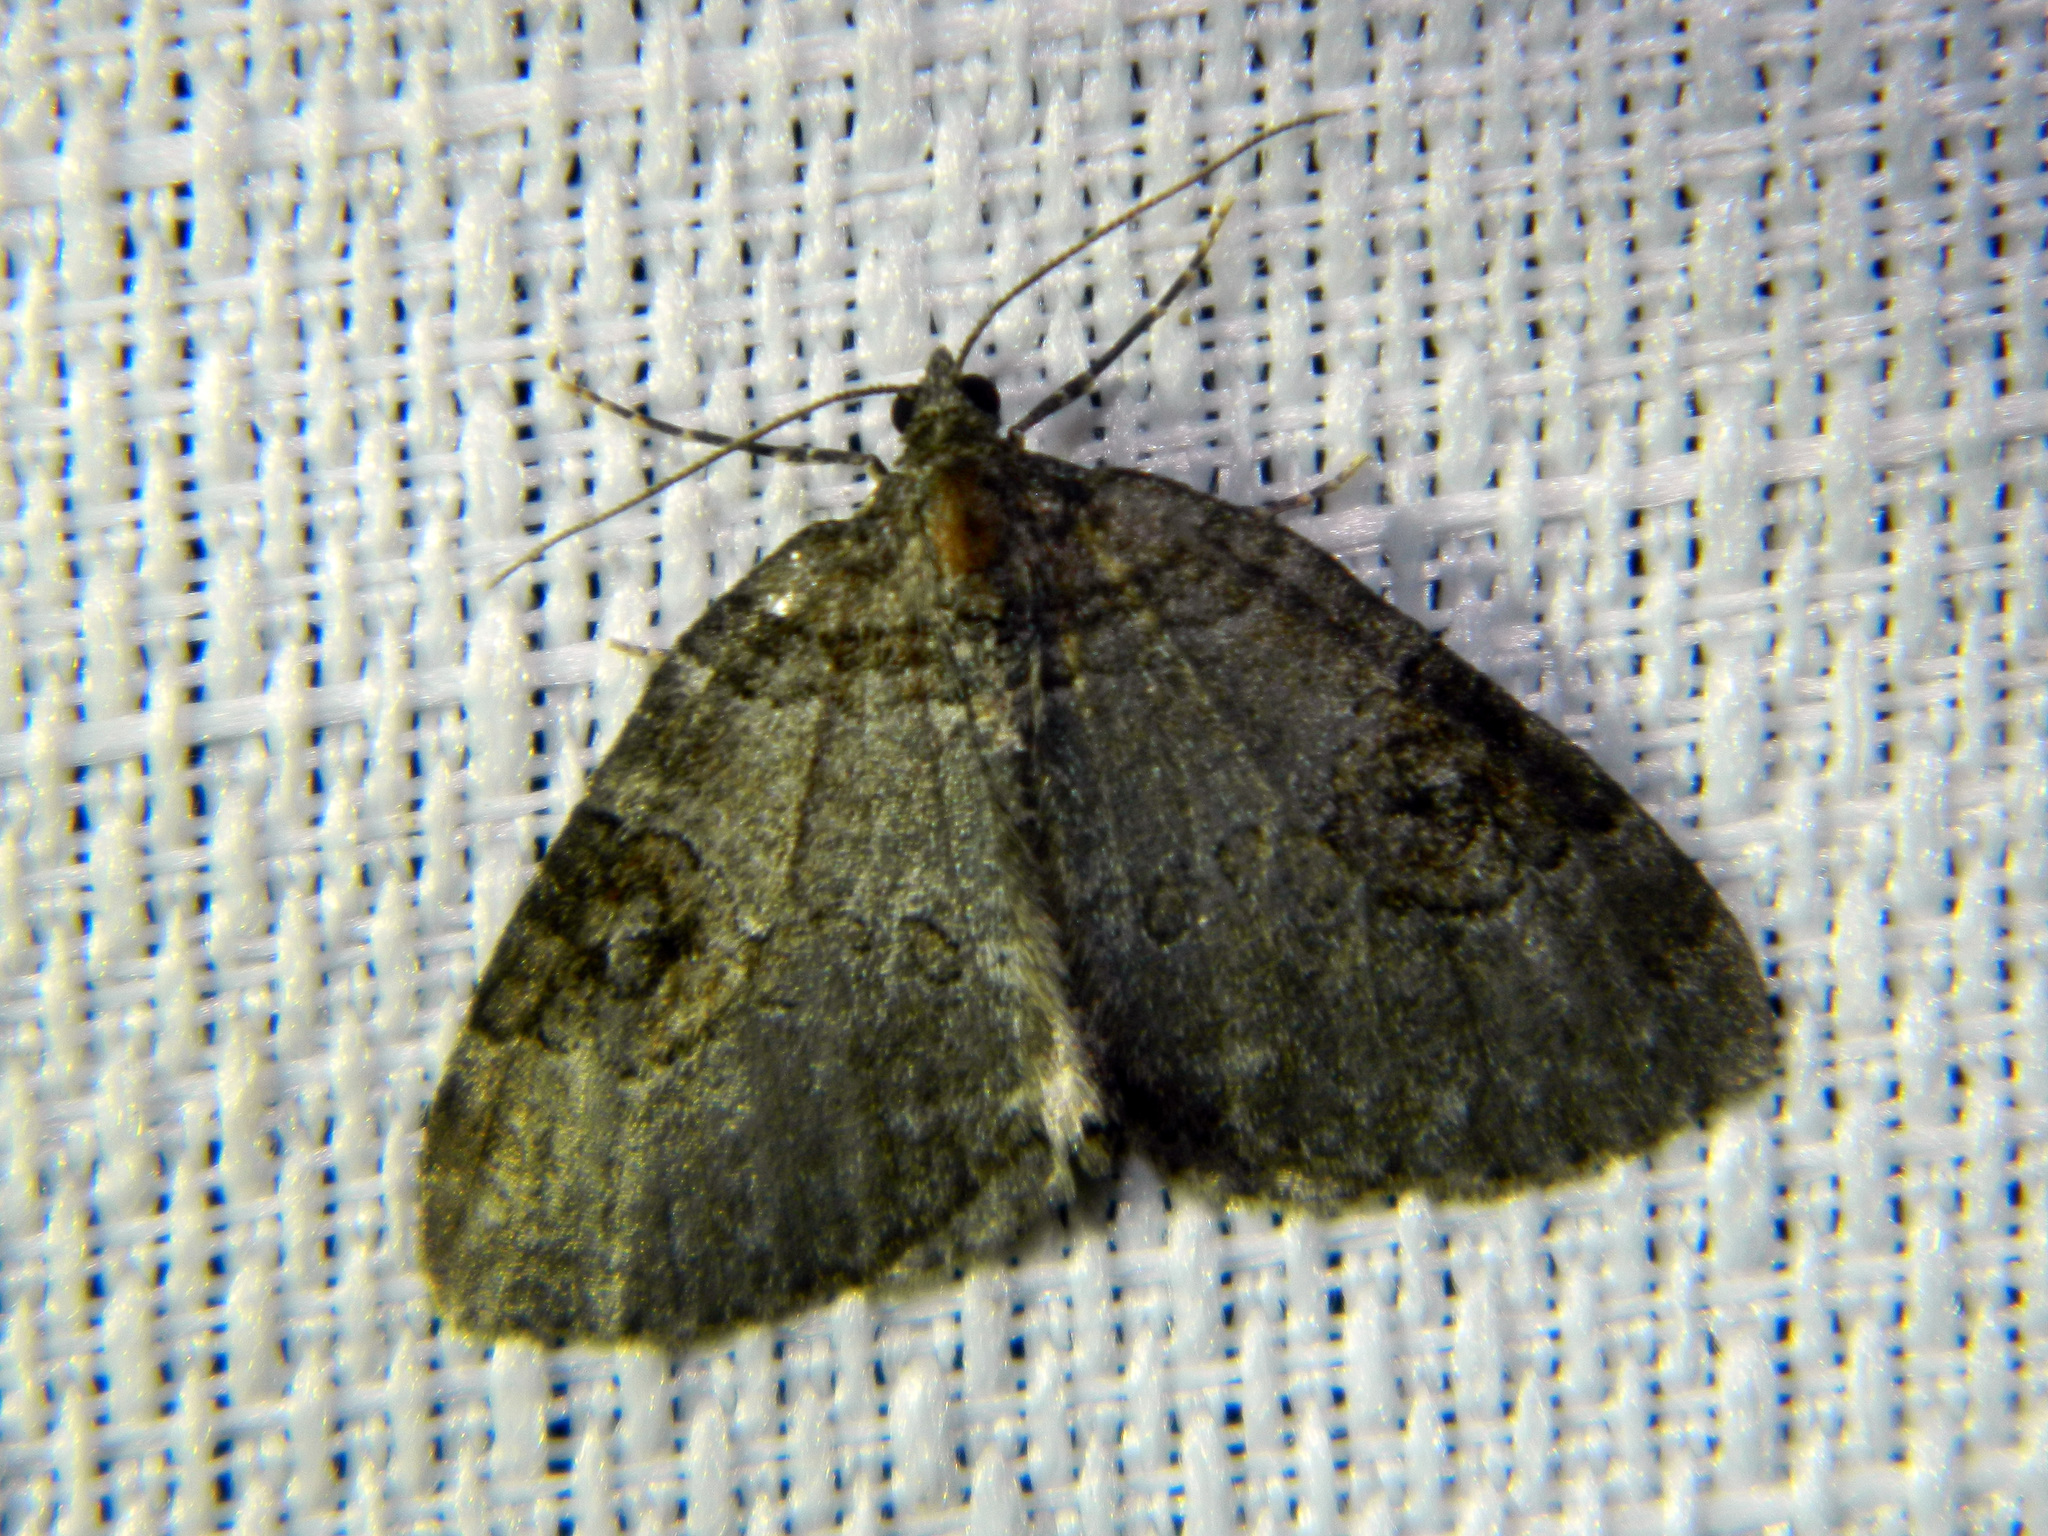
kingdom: Animalia
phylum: Arthropoda
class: Insecta
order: Lepidoptera
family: Geometridae
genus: Plemyria
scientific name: Plemyria georgii
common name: George's carpet moth
